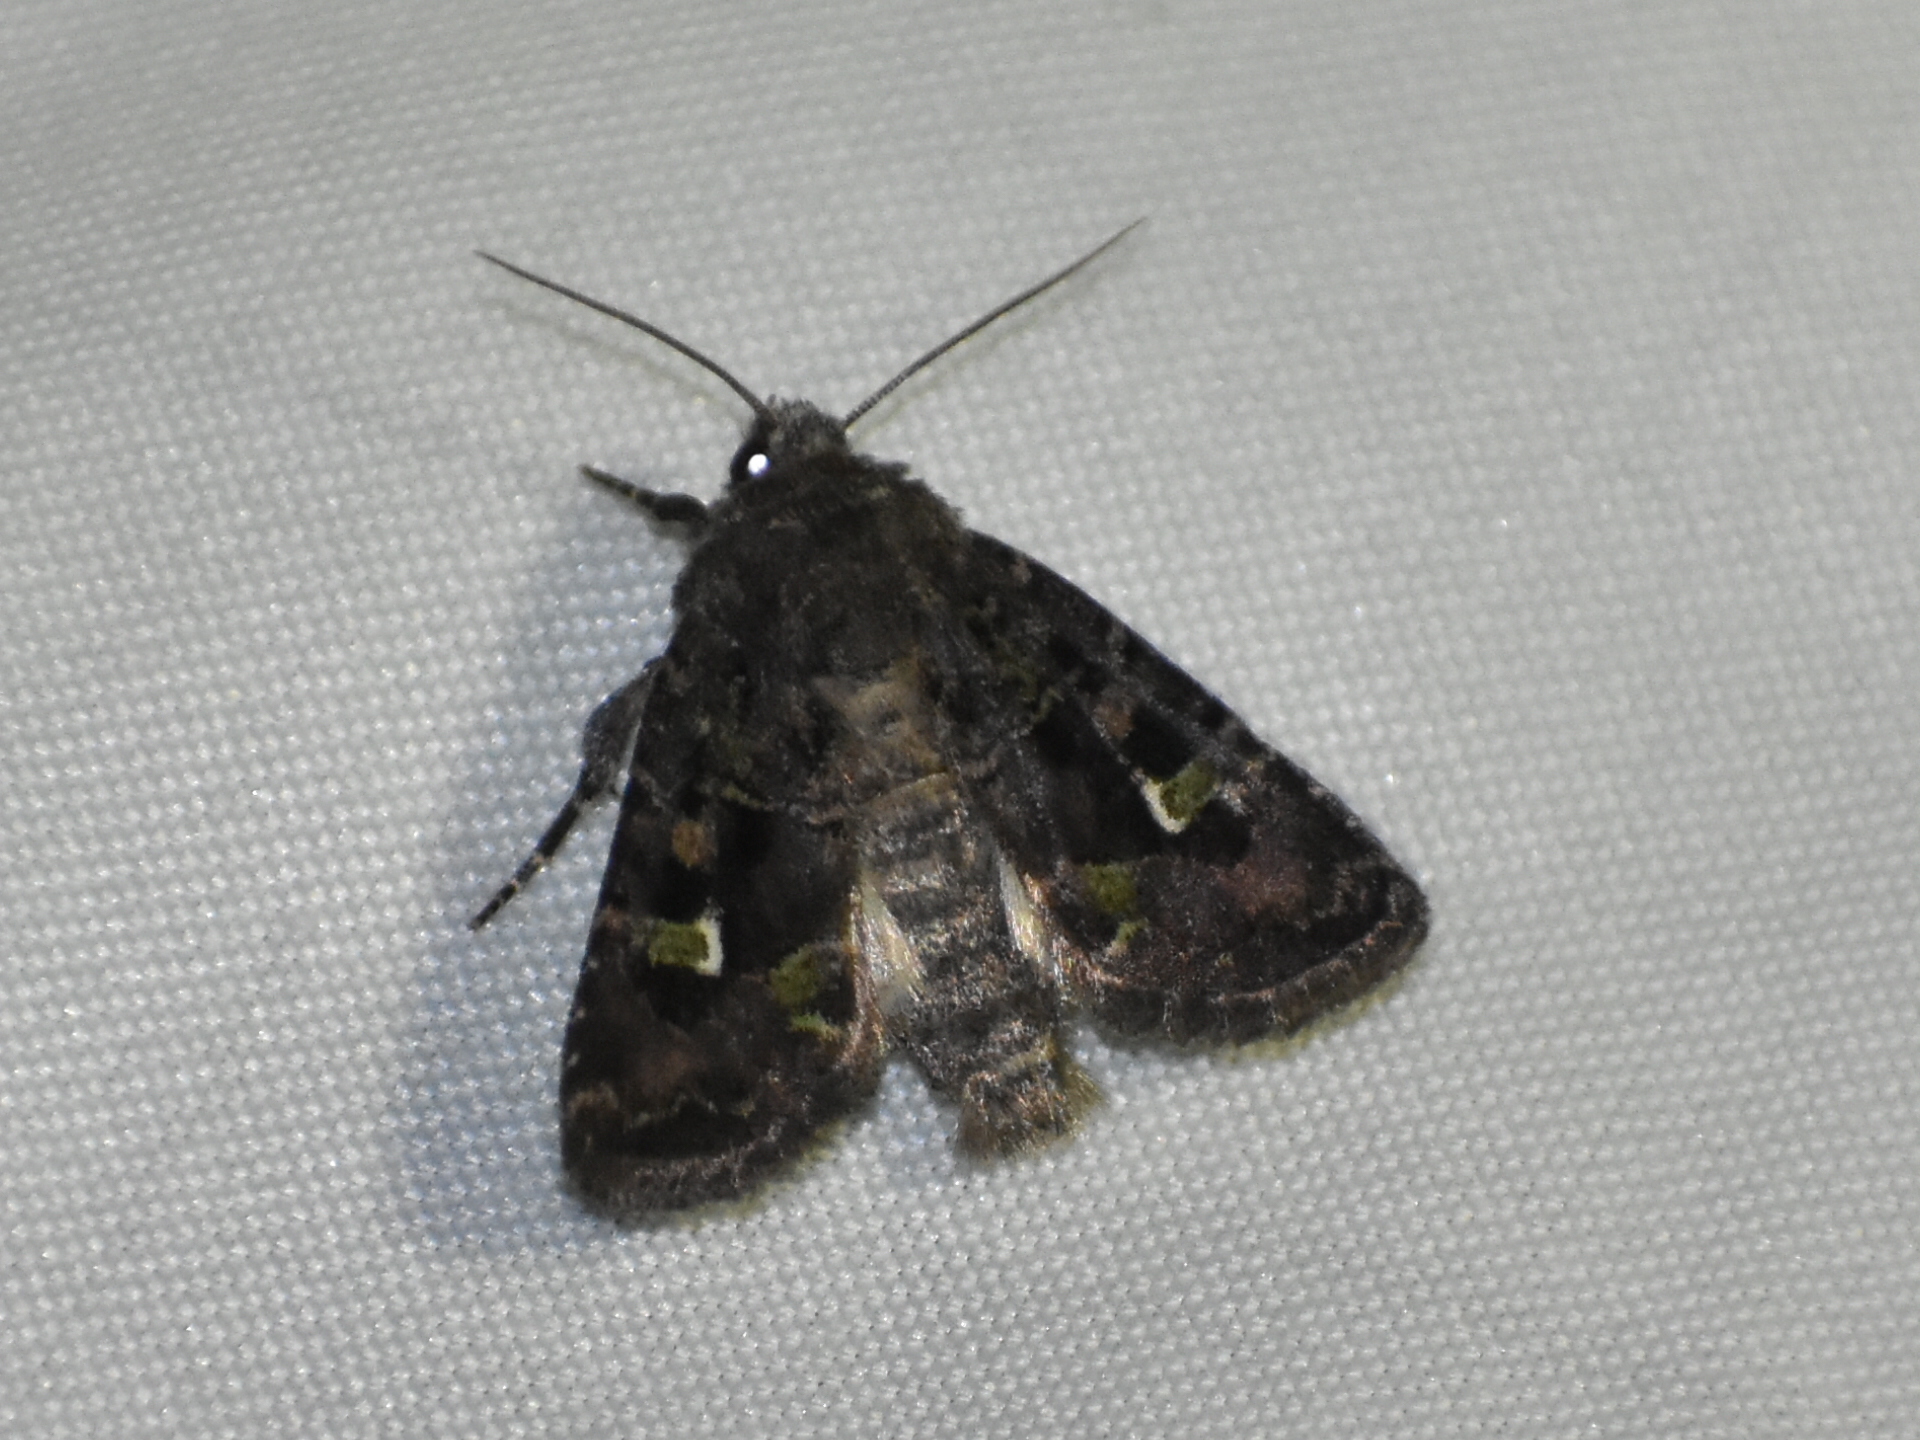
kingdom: Animalia
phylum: Arthropoda
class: Insecta
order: Lepidoptera
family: Noctuidae
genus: Lacinipolia
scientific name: Lacinipolia renigera
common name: Kidney-spotted minor
